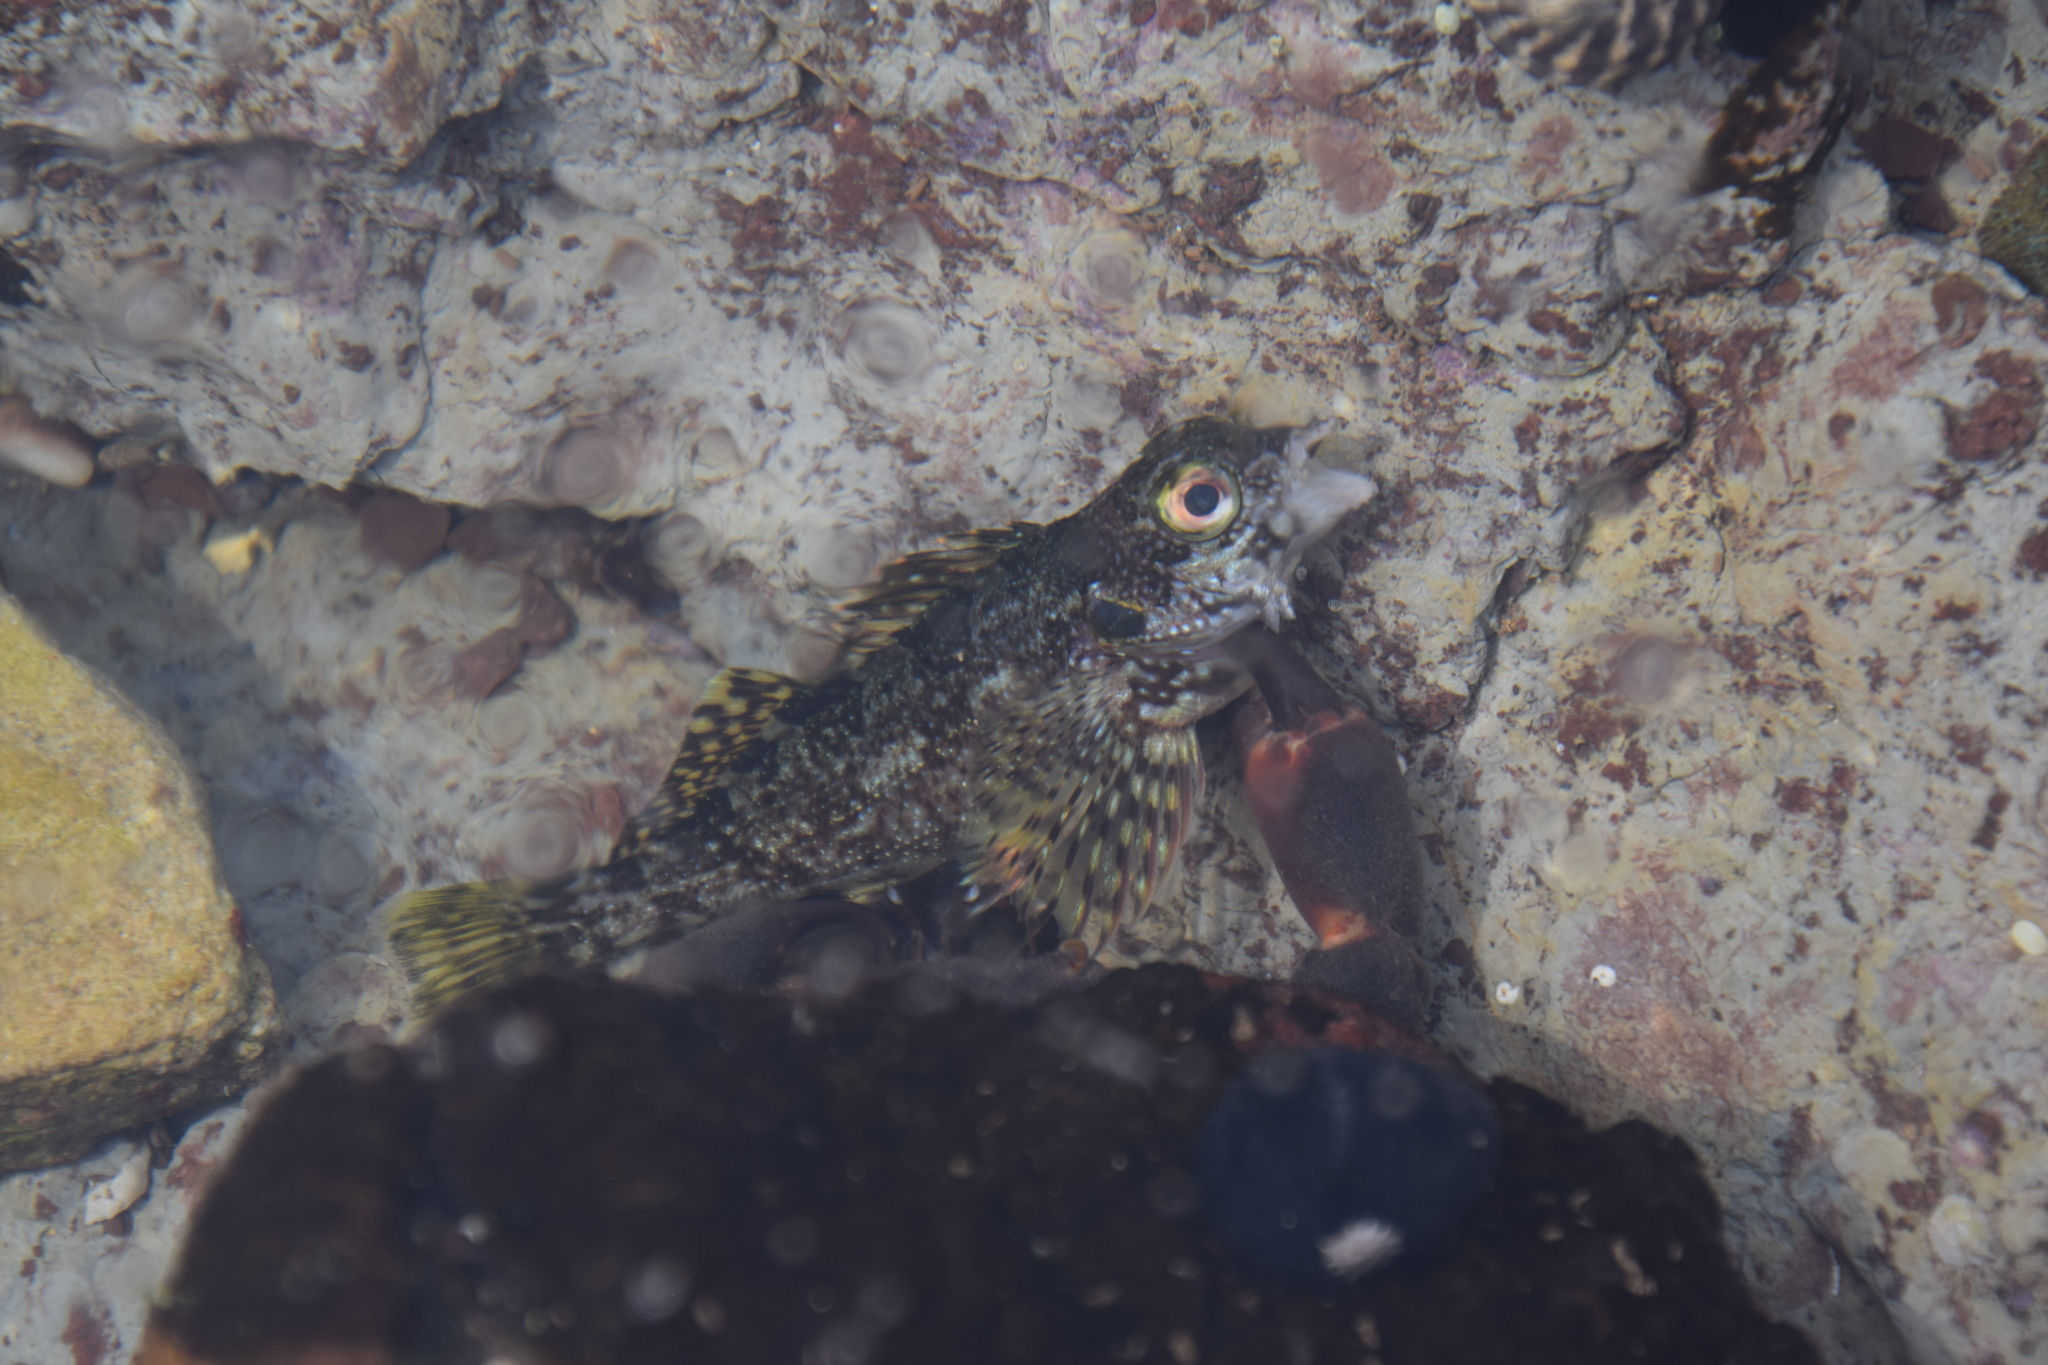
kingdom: Animalia
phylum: Chordata
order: Perciformes
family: Chironemidae
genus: Chironemus
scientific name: Chironemus marmoratus
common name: Kelpfish
